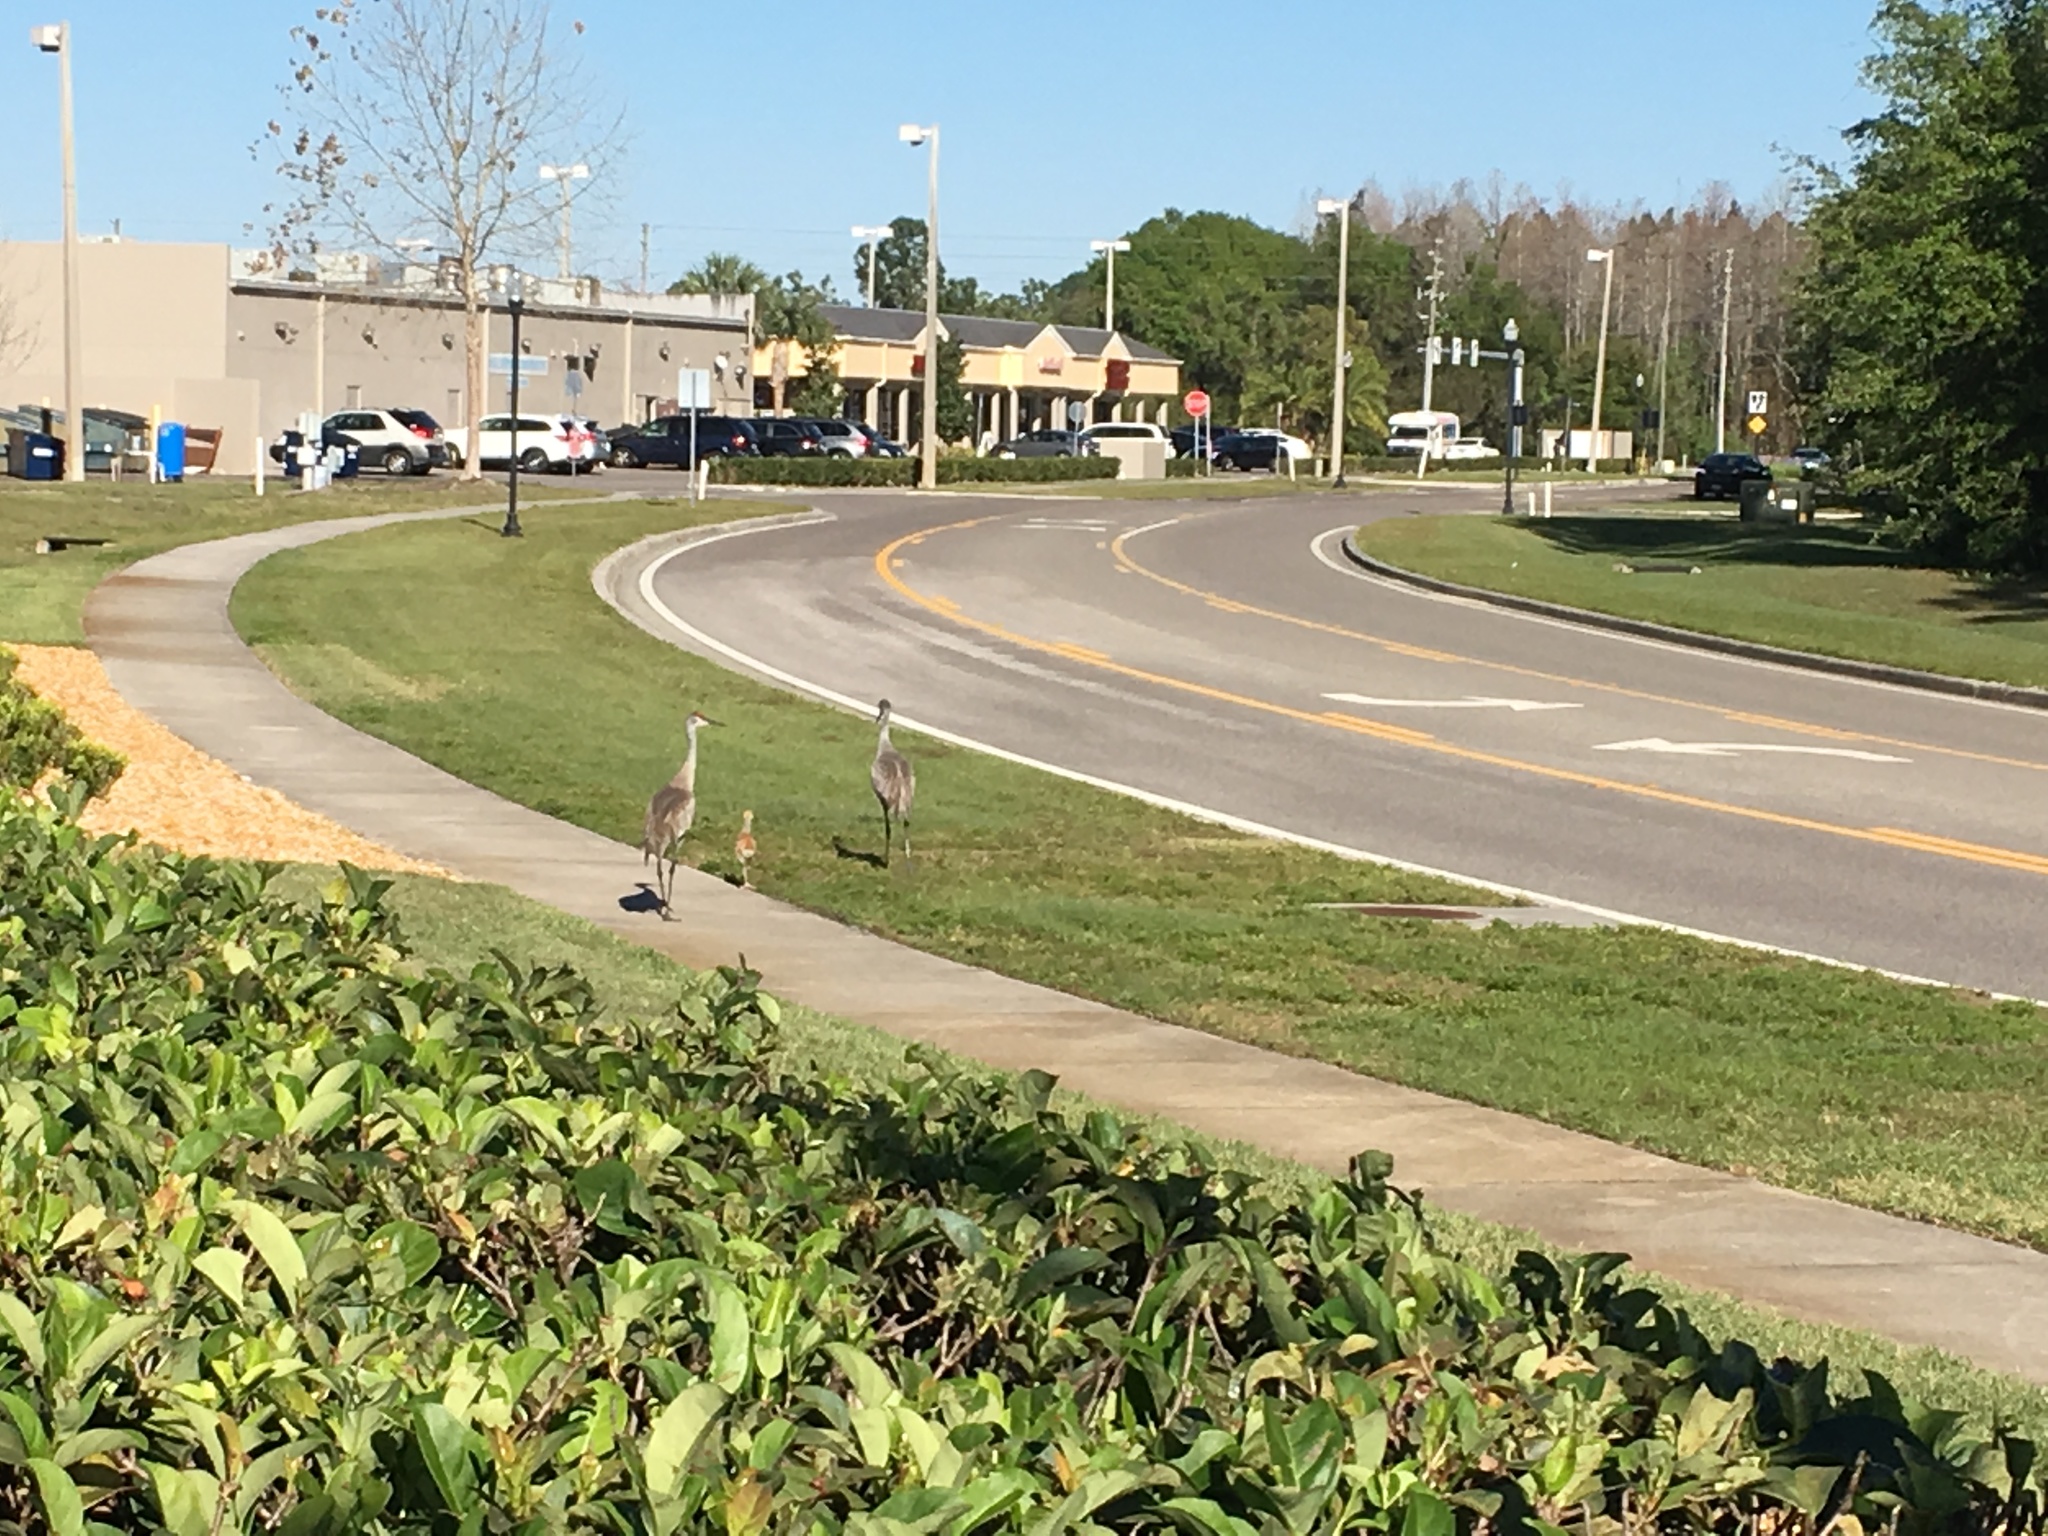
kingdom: Animalia
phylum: Chordata
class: Aves
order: Gruiformes
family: Gruidae
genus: Grus
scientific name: Grus canadensis
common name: Sandhill crane
